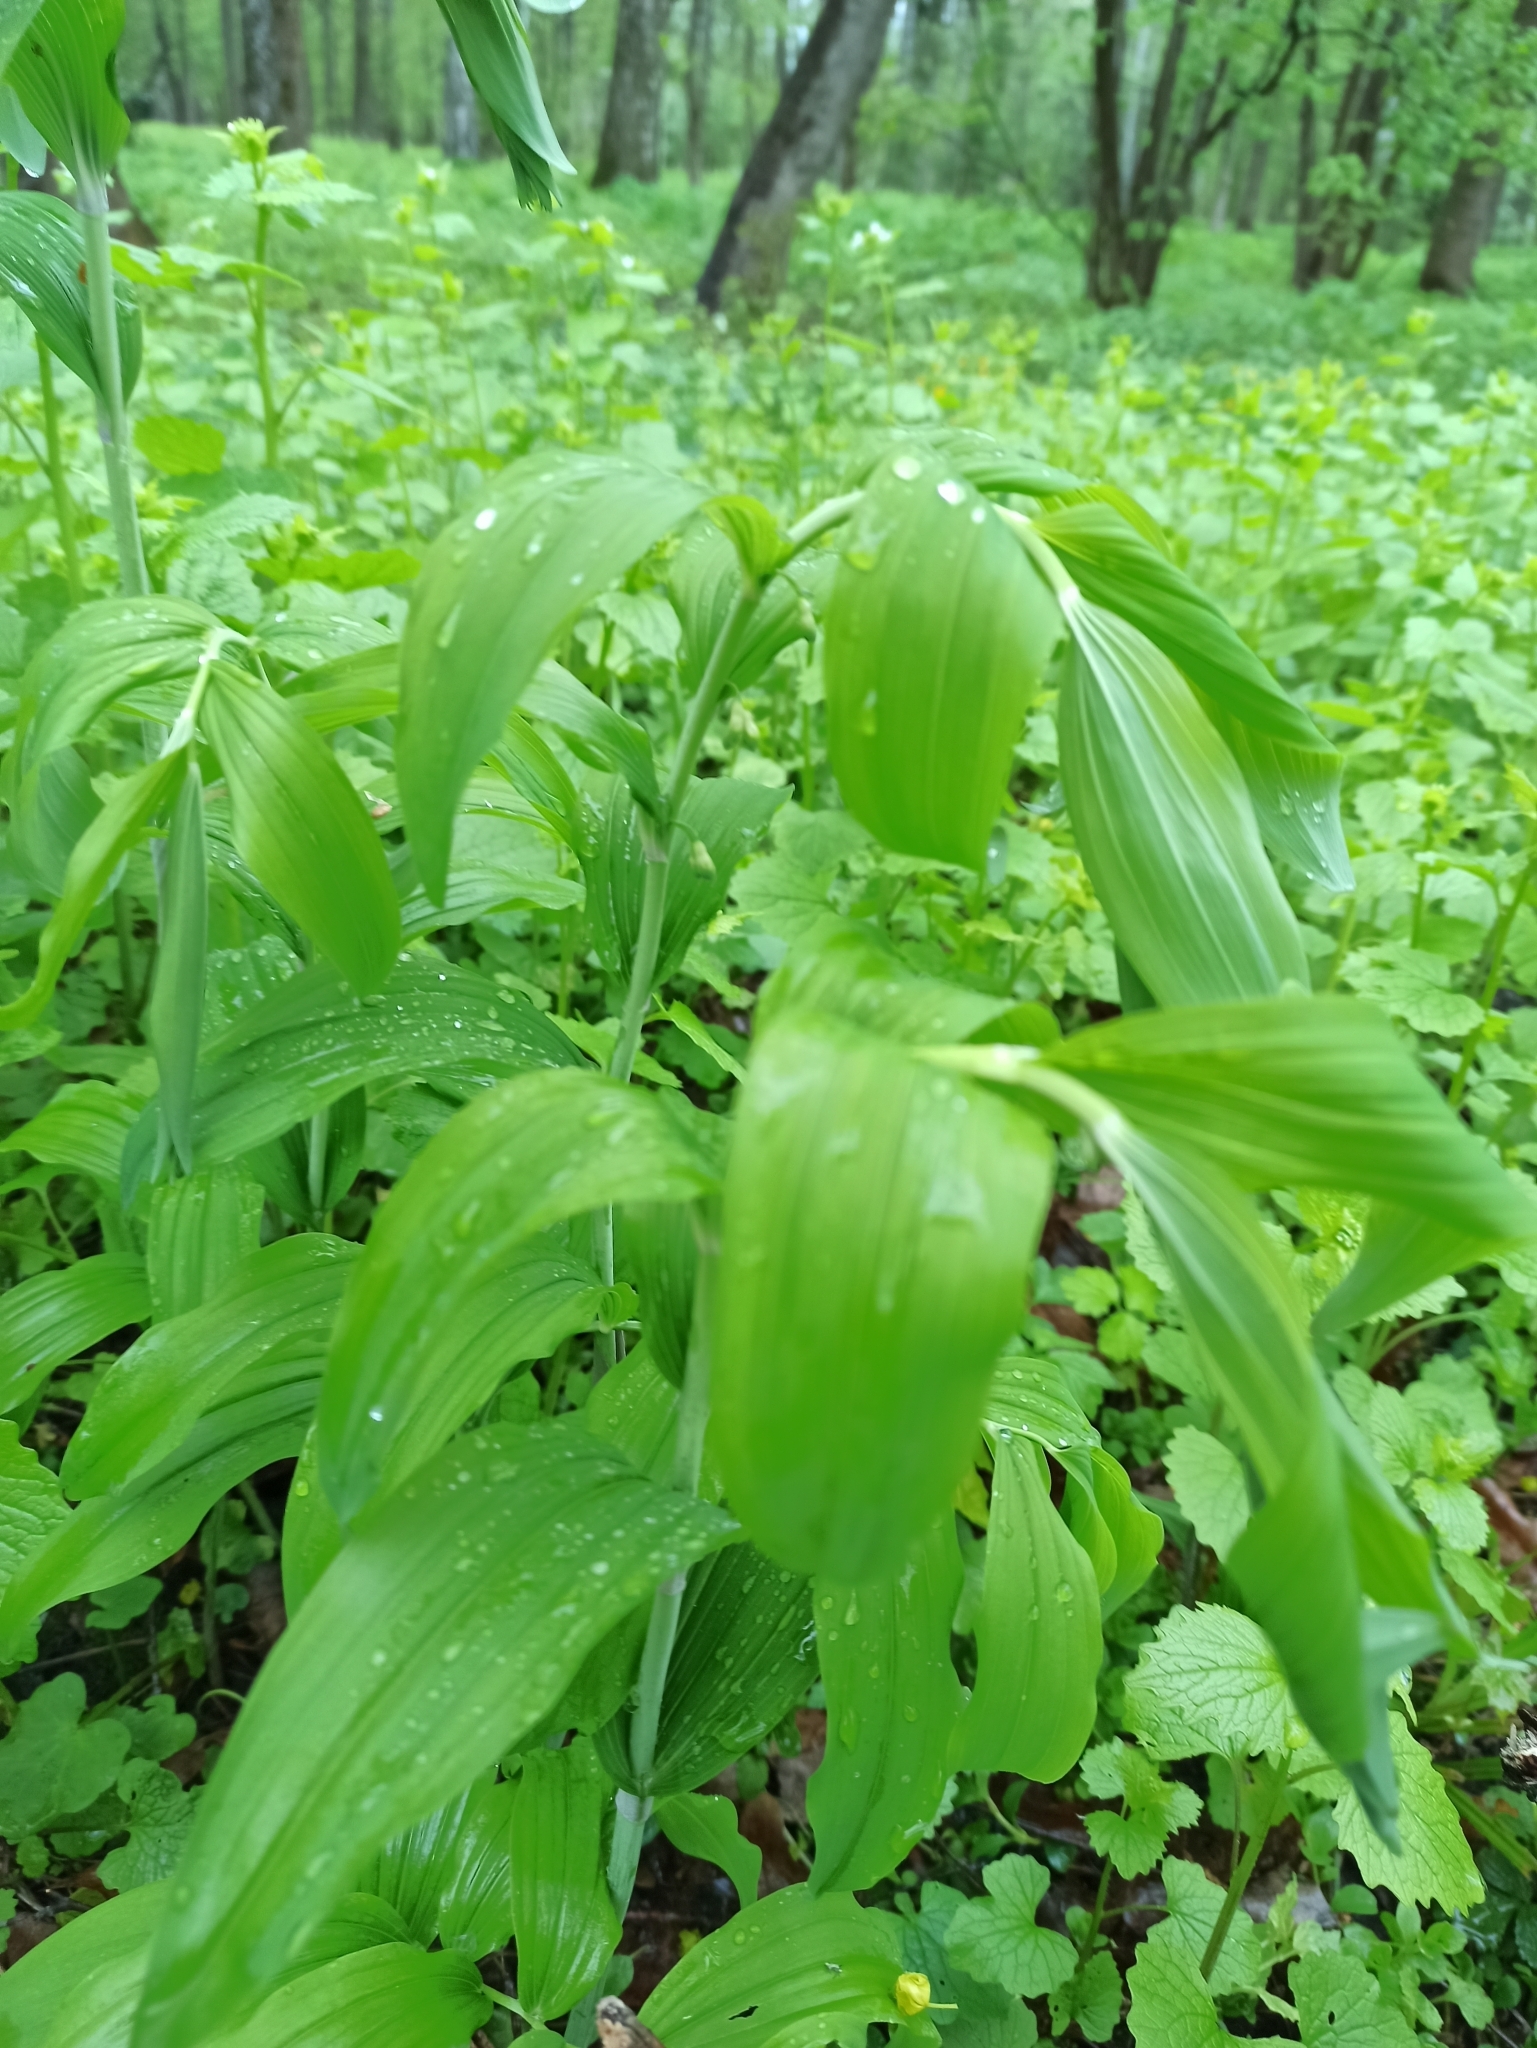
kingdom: Plantae
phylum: Tracheophyta
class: Liliopsida
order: Asparagales
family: Asparagaceae
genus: Polygonatum
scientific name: Polygonatum multiflorum
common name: Solomon's-seal
